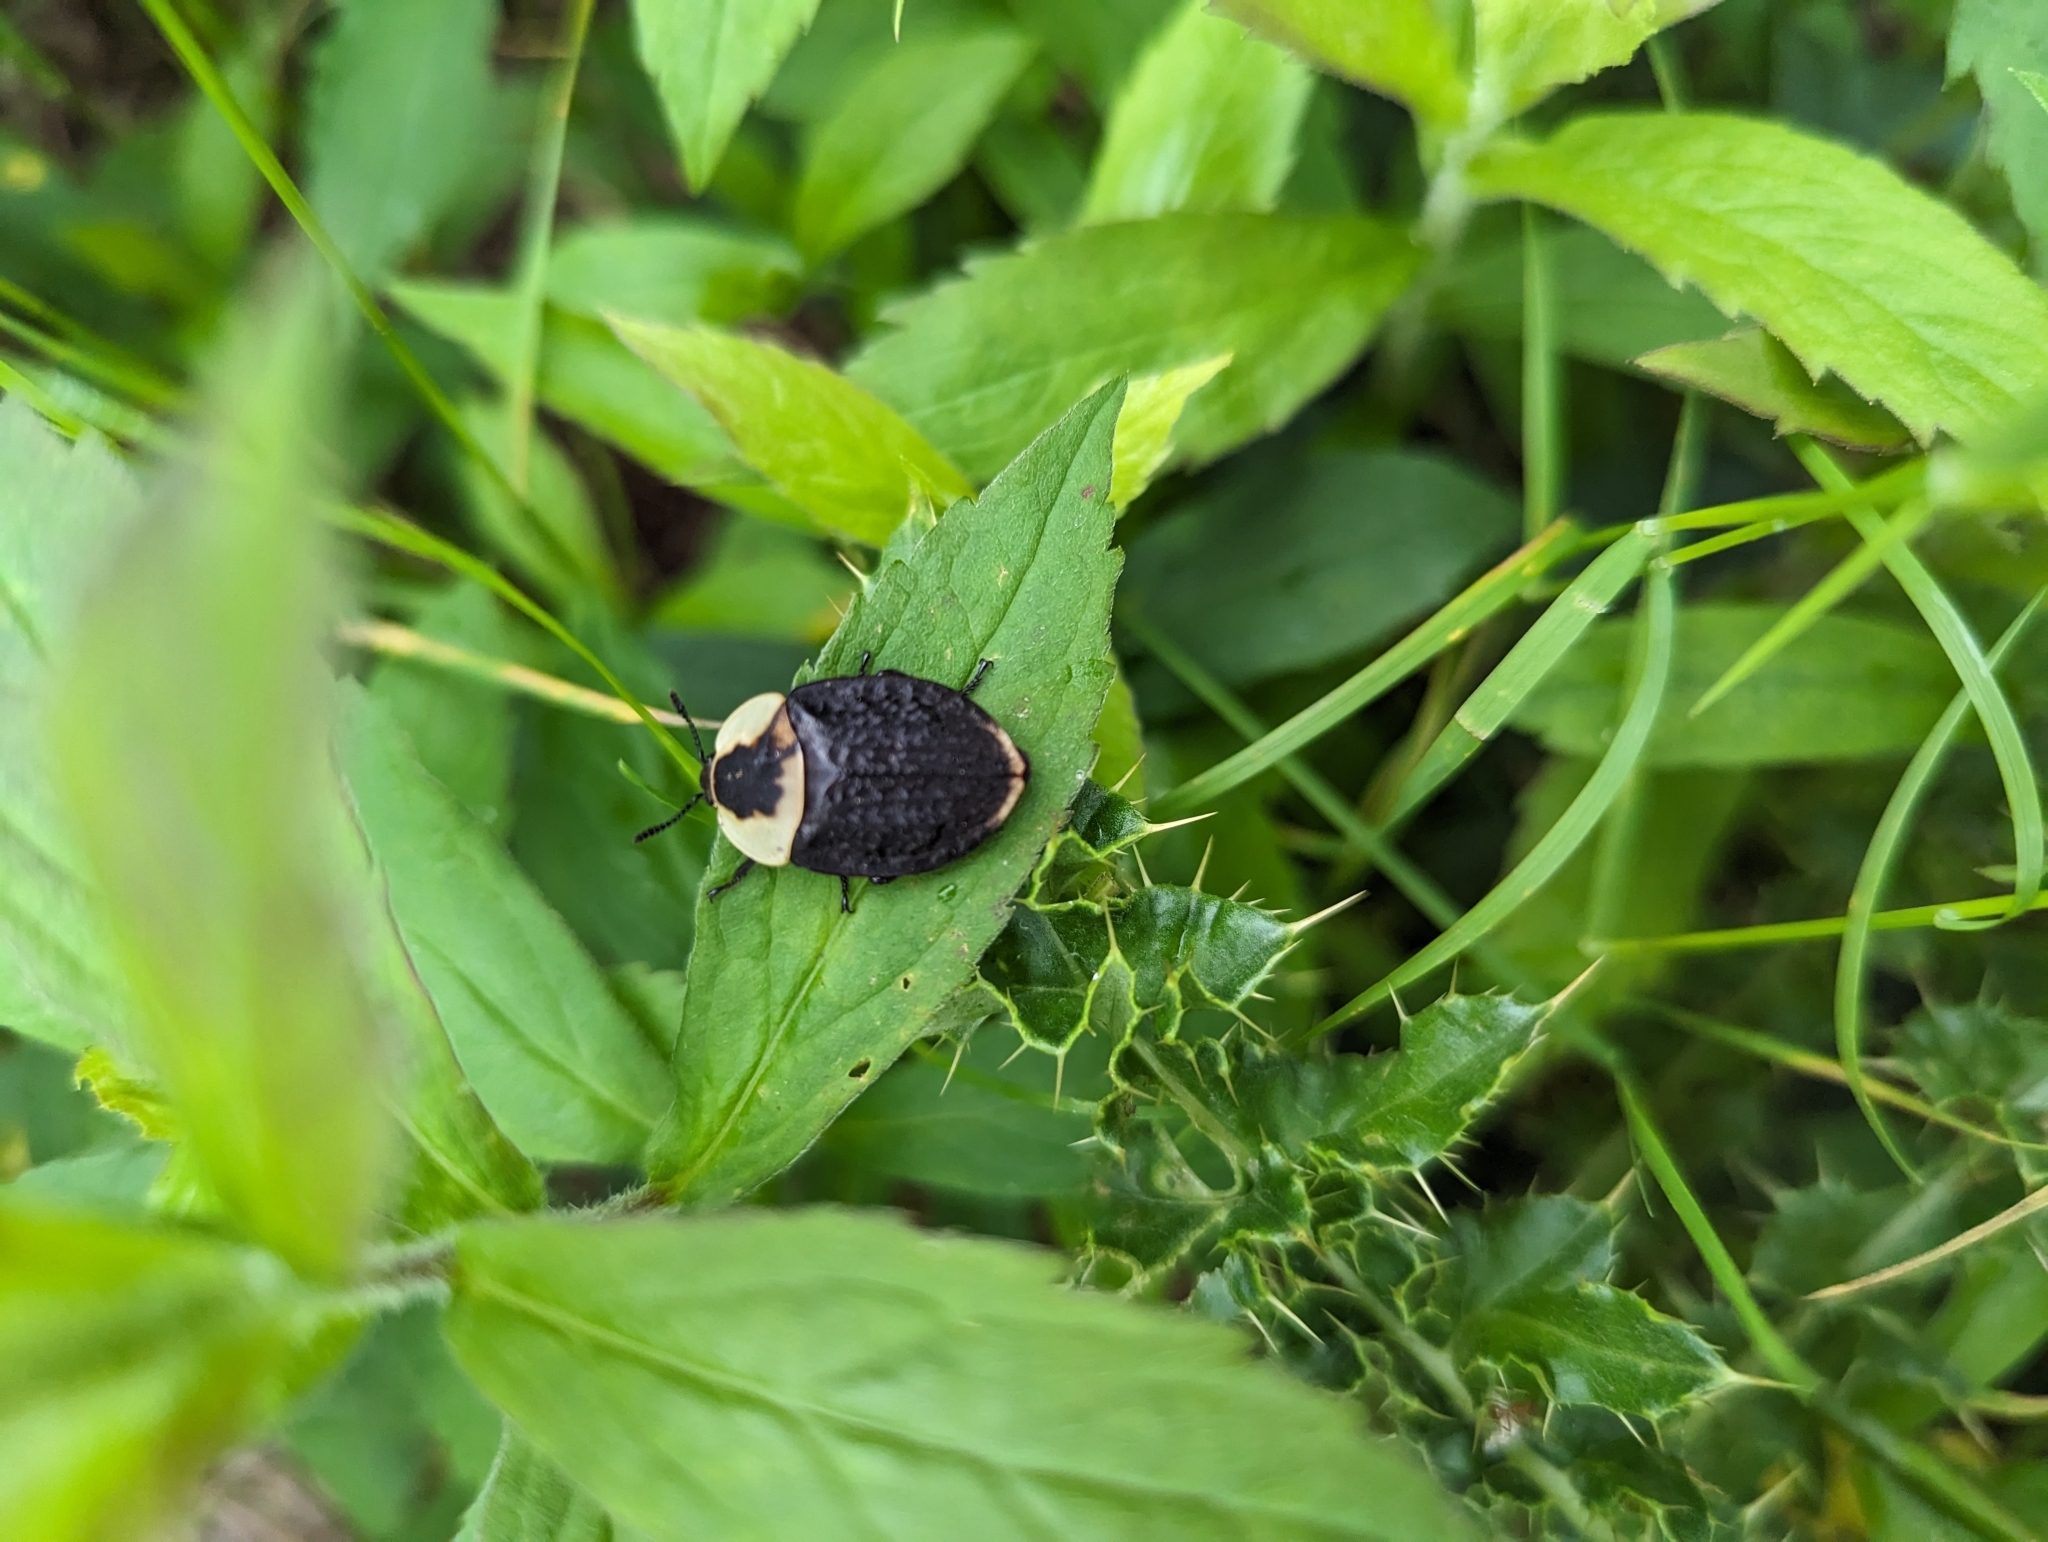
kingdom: Animalia
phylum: Arthropoda
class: Insecta
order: Coleoptera
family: Staphylinidae
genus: Necrophila
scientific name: Necrophila americana
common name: American carrion beetle
